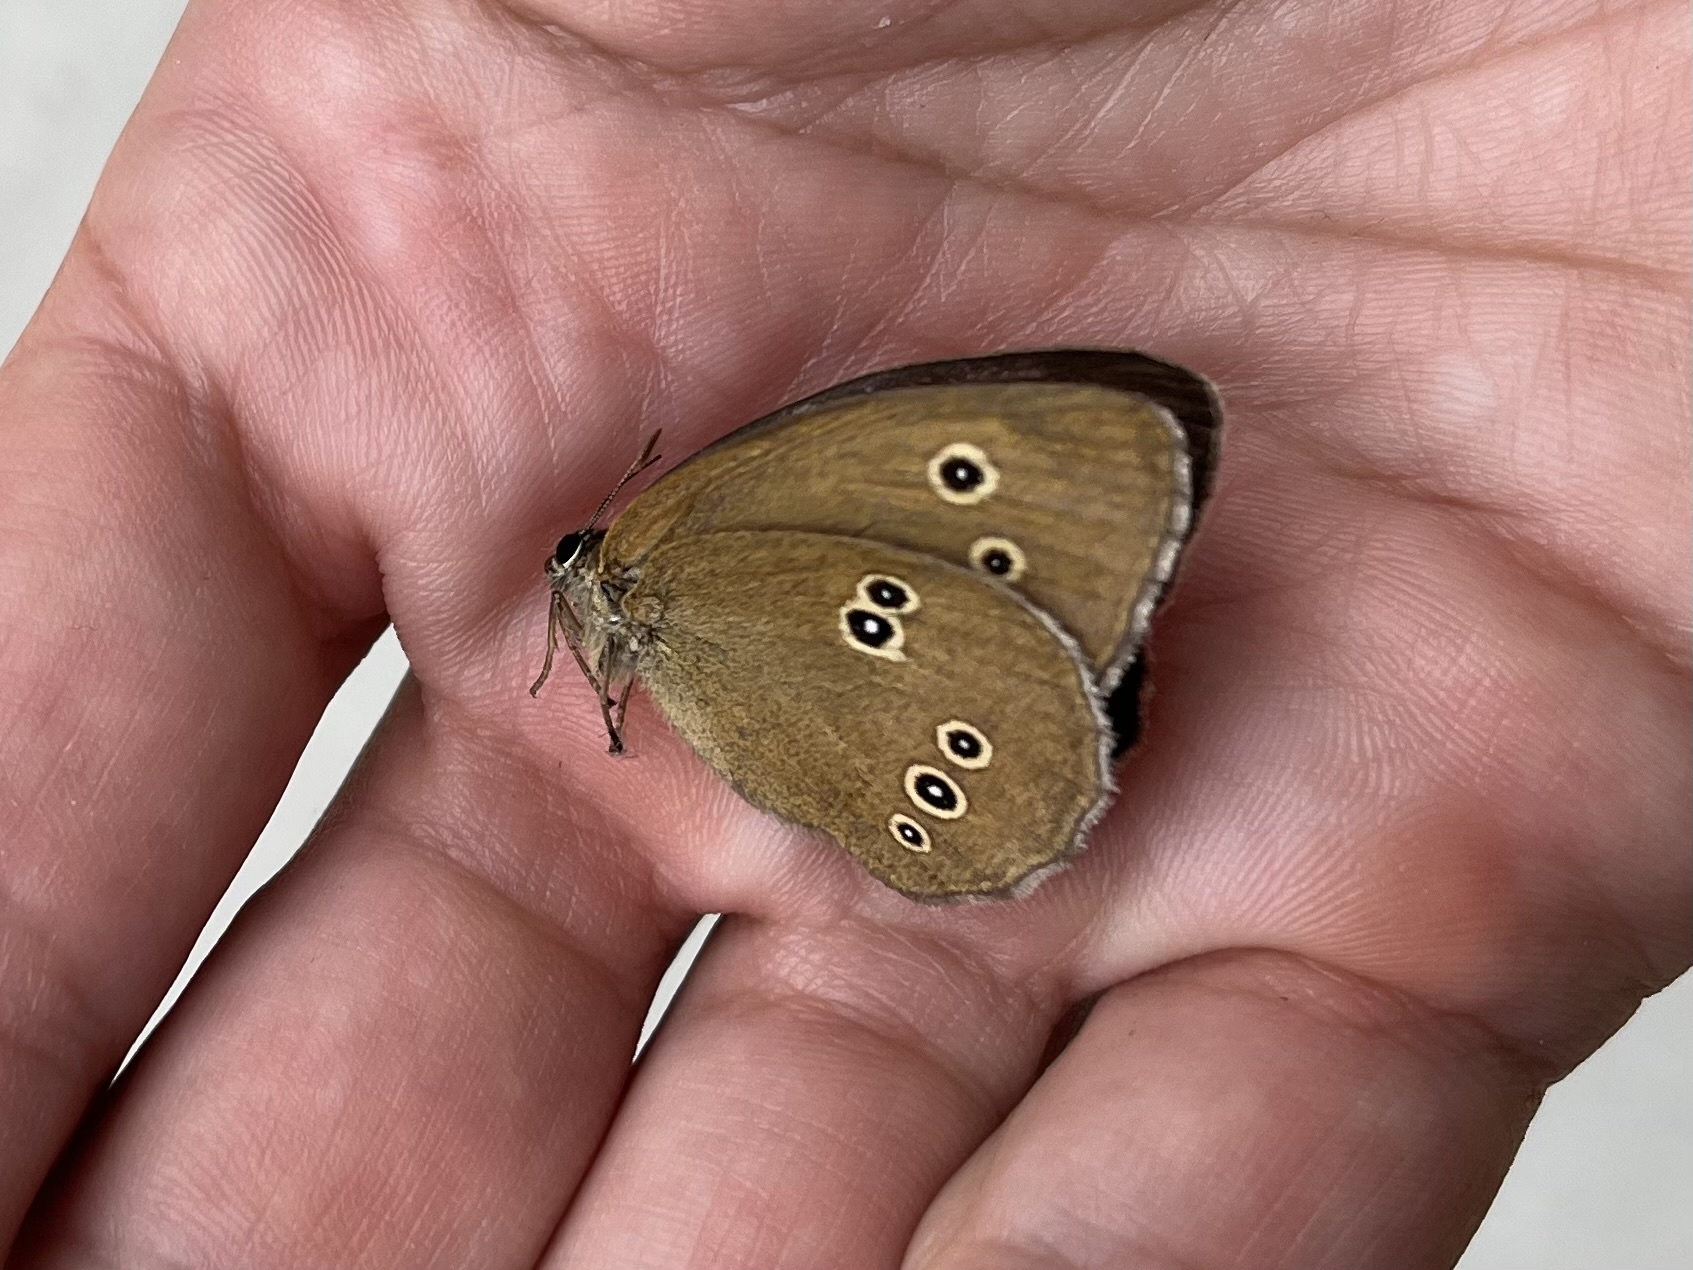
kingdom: Animalia
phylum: Arthropoda
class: Insecta
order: Lepidoptera
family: Nymphalidae
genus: Aphantopus
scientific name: Aphantopus hyperantus
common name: Ringlet
